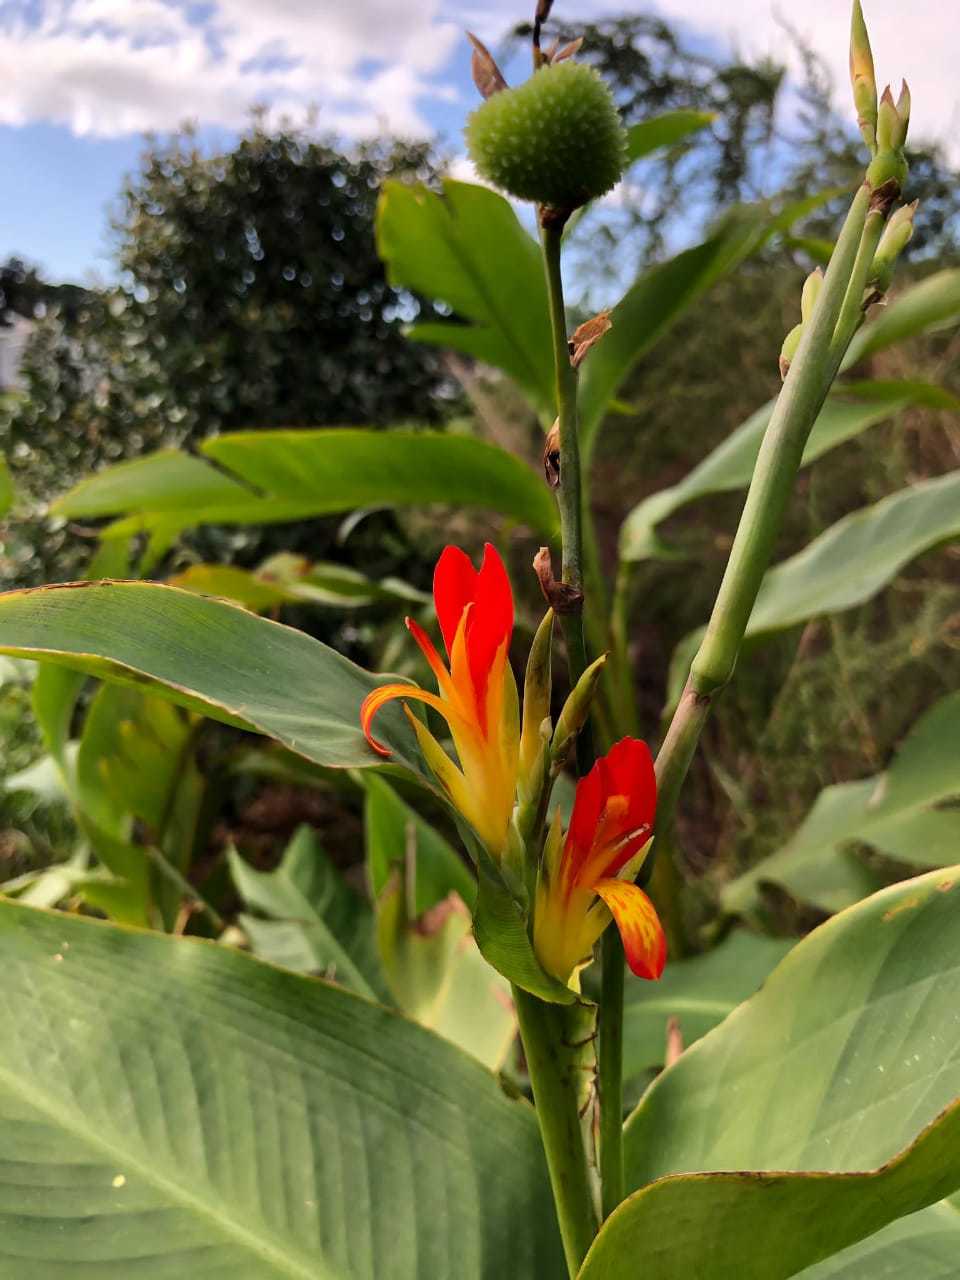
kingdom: Plantae
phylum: Tracheophyta
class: Liliopsida
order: Zingiberales
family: Cannaceae
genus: Canna
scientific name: Canna indica
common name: Indian shot
